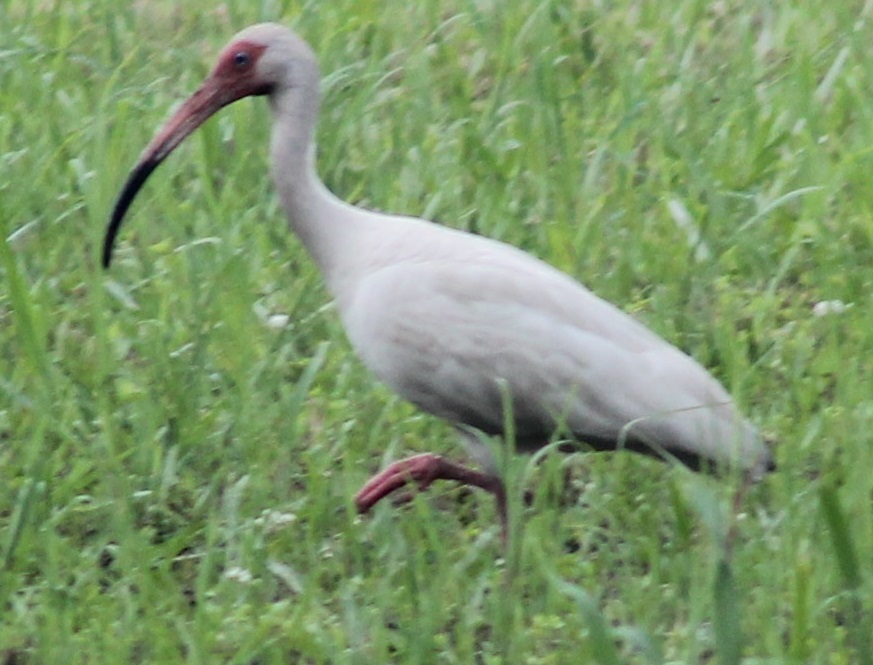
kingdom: Animalia
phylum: Chordata
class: Aves
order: Pelecaniformes
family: Threskiornithidae
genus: Eudocimus
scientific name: Eudocimus albus
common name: White ibis
